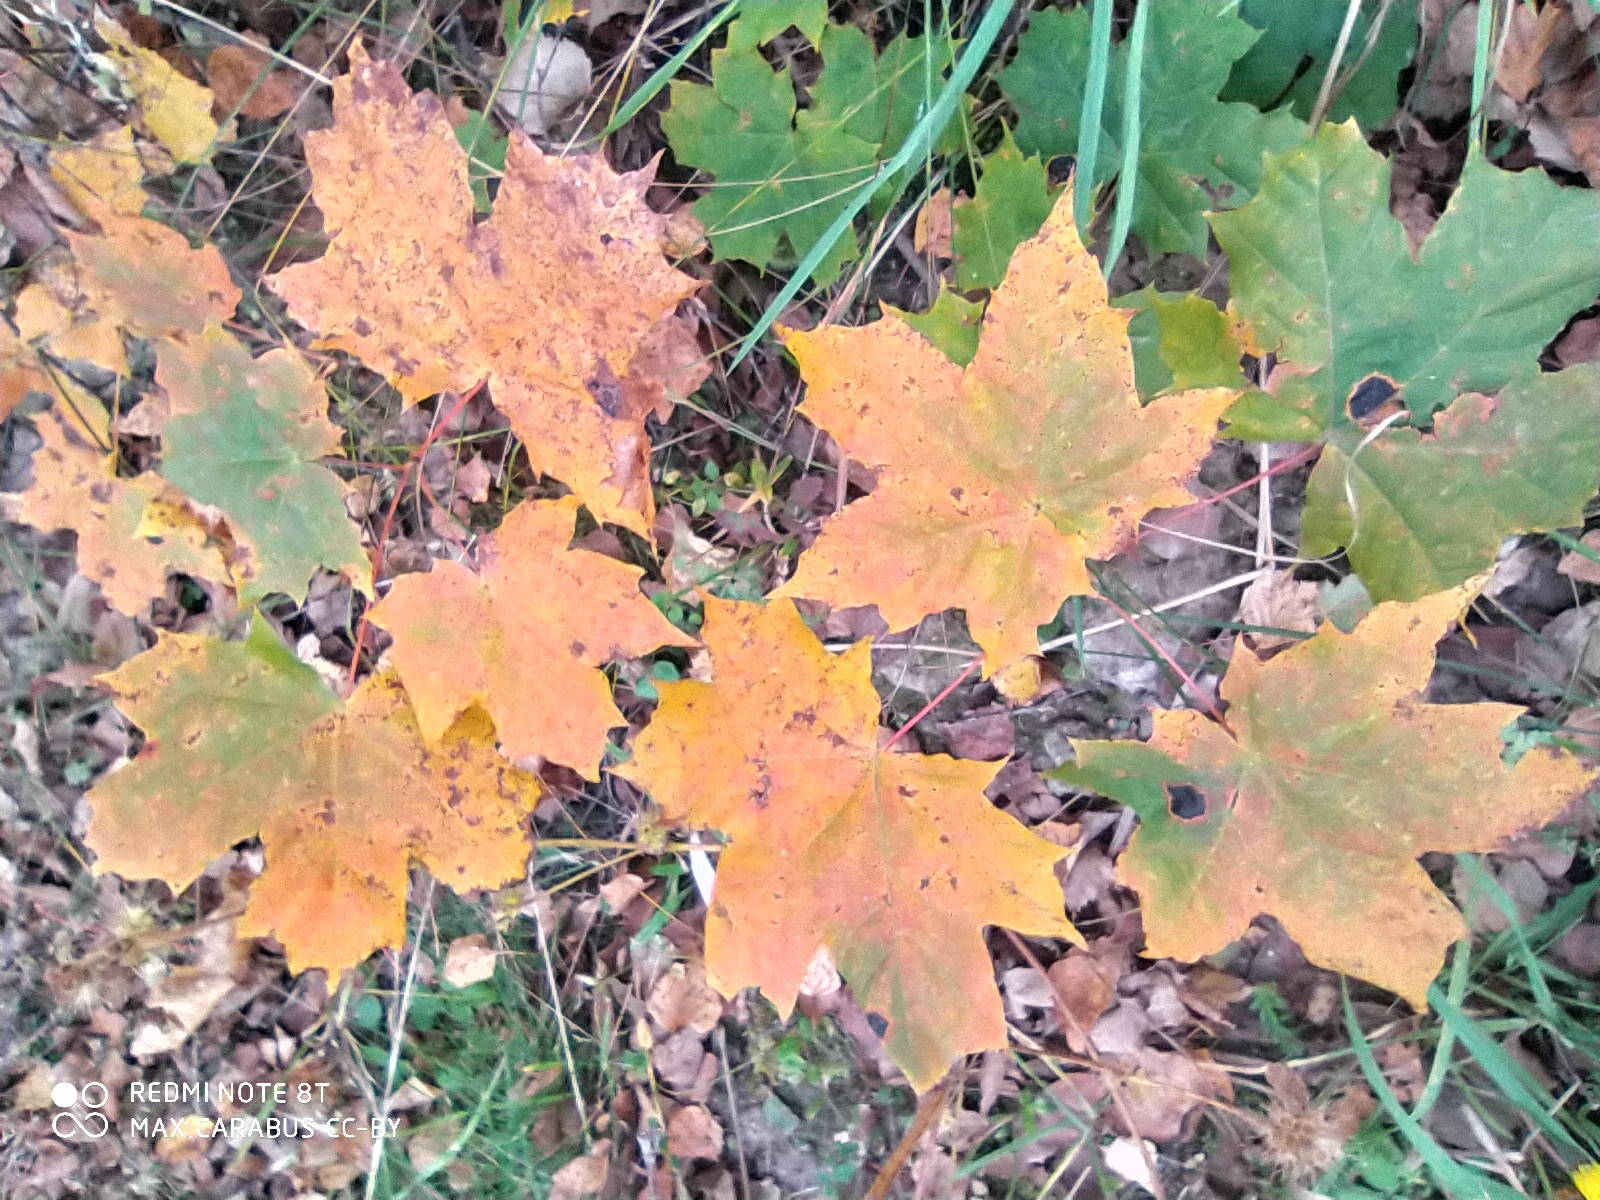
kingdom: Plantae
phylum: Tracheophyta
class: Magnoliopsida
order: Sapindales
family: Sapindaceae
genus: Acer
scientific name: Acer platanoides
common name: Norway maple
